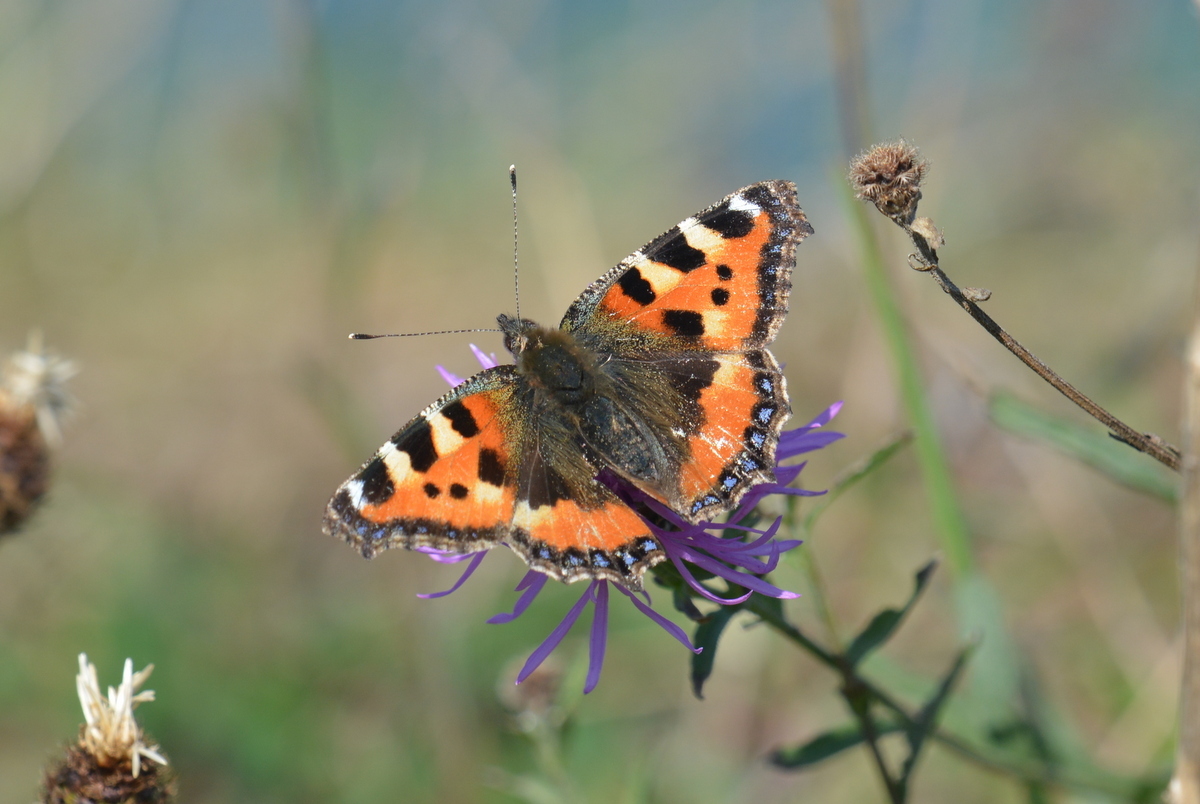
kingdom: Animalia
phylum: Arthropoda
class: Insecta
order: Lepidoptera
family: Nymphalidae
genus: Aglais
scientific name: Aglais urticae
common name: Small tortoiseshell
